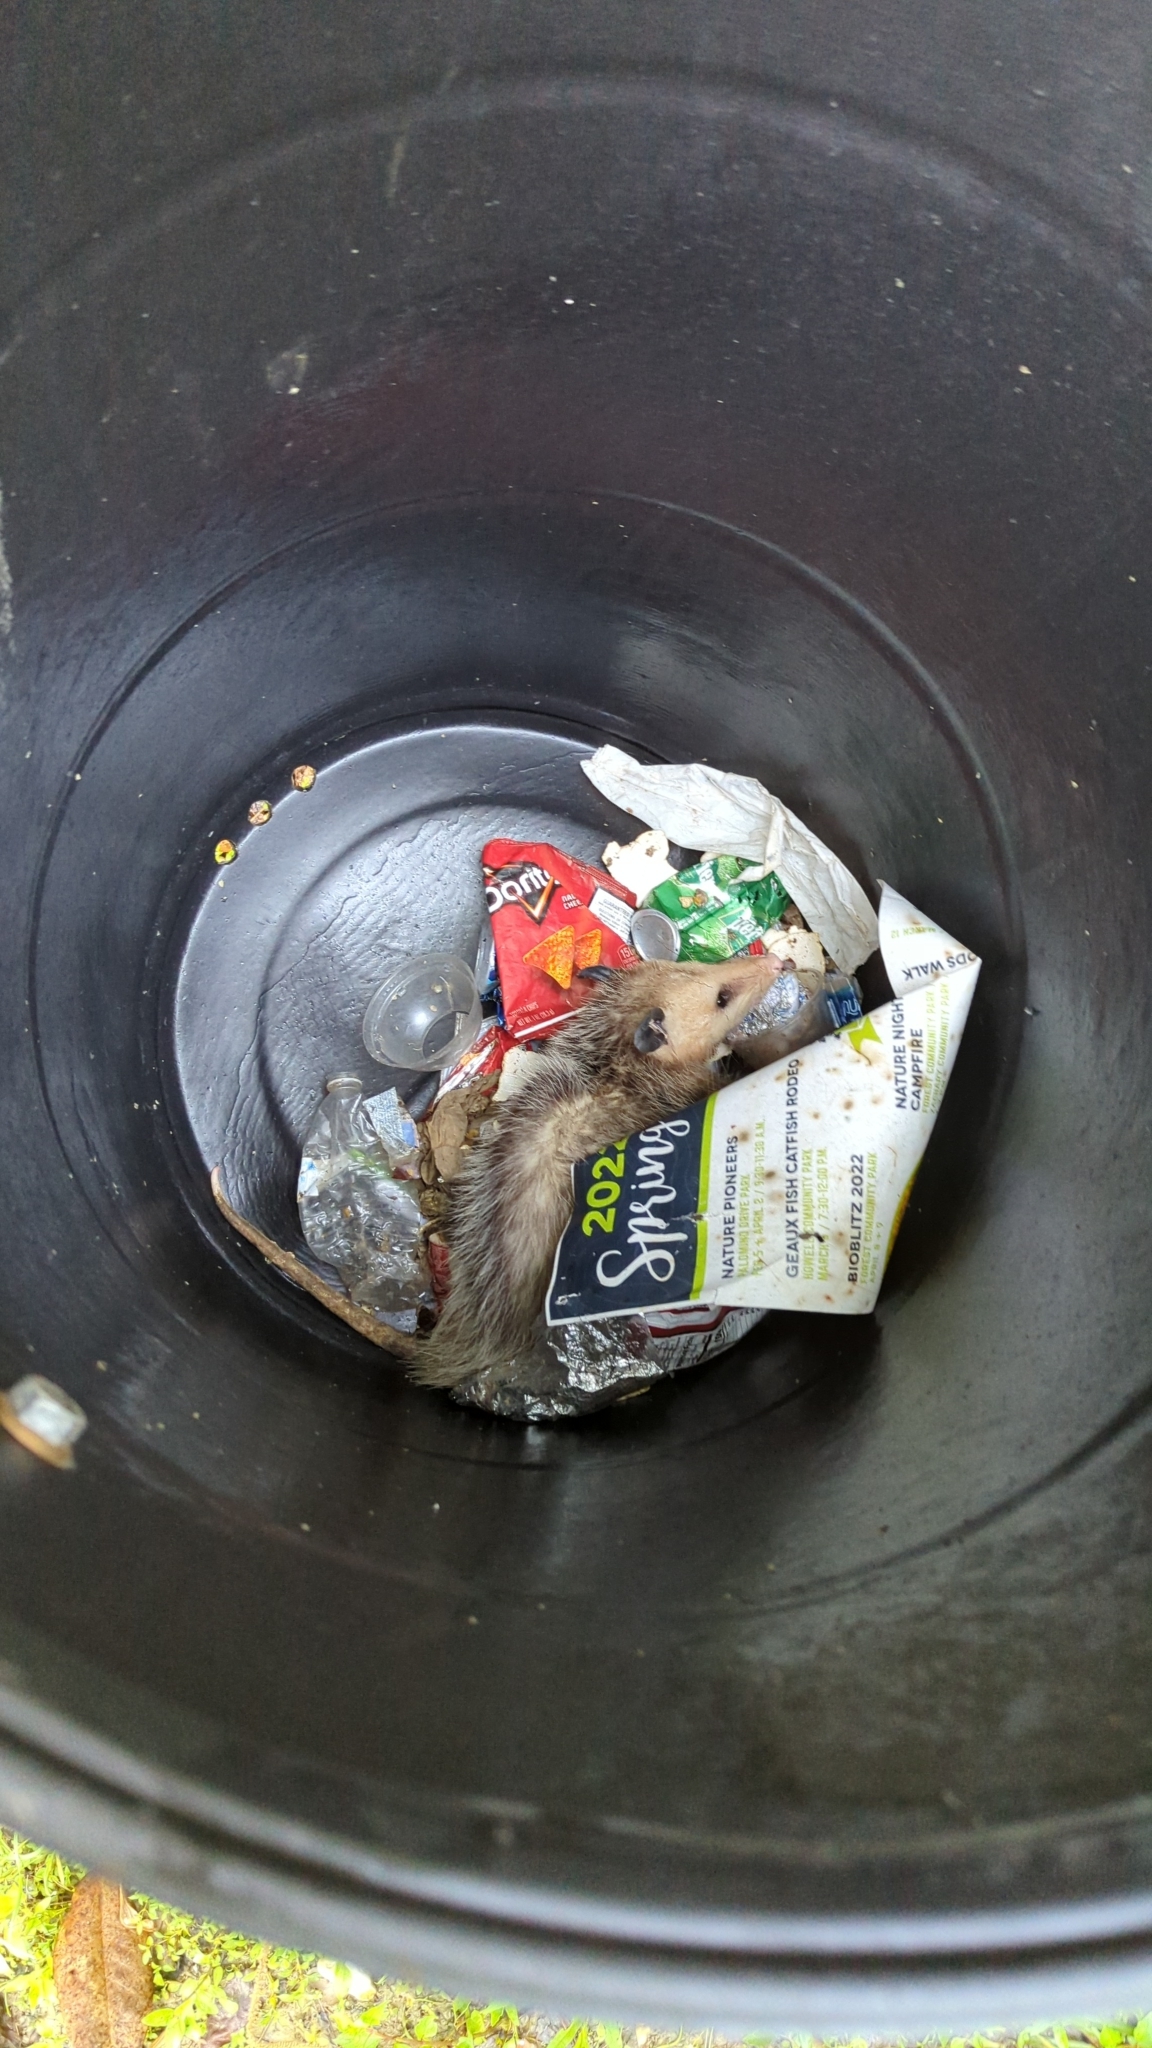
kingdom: Animalia
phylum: Chordata
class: Mammalia
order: Didelphimorphia
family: Didelphidae
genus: Didelphis
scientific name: Didelphis virginiana
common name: Virginia opossum
